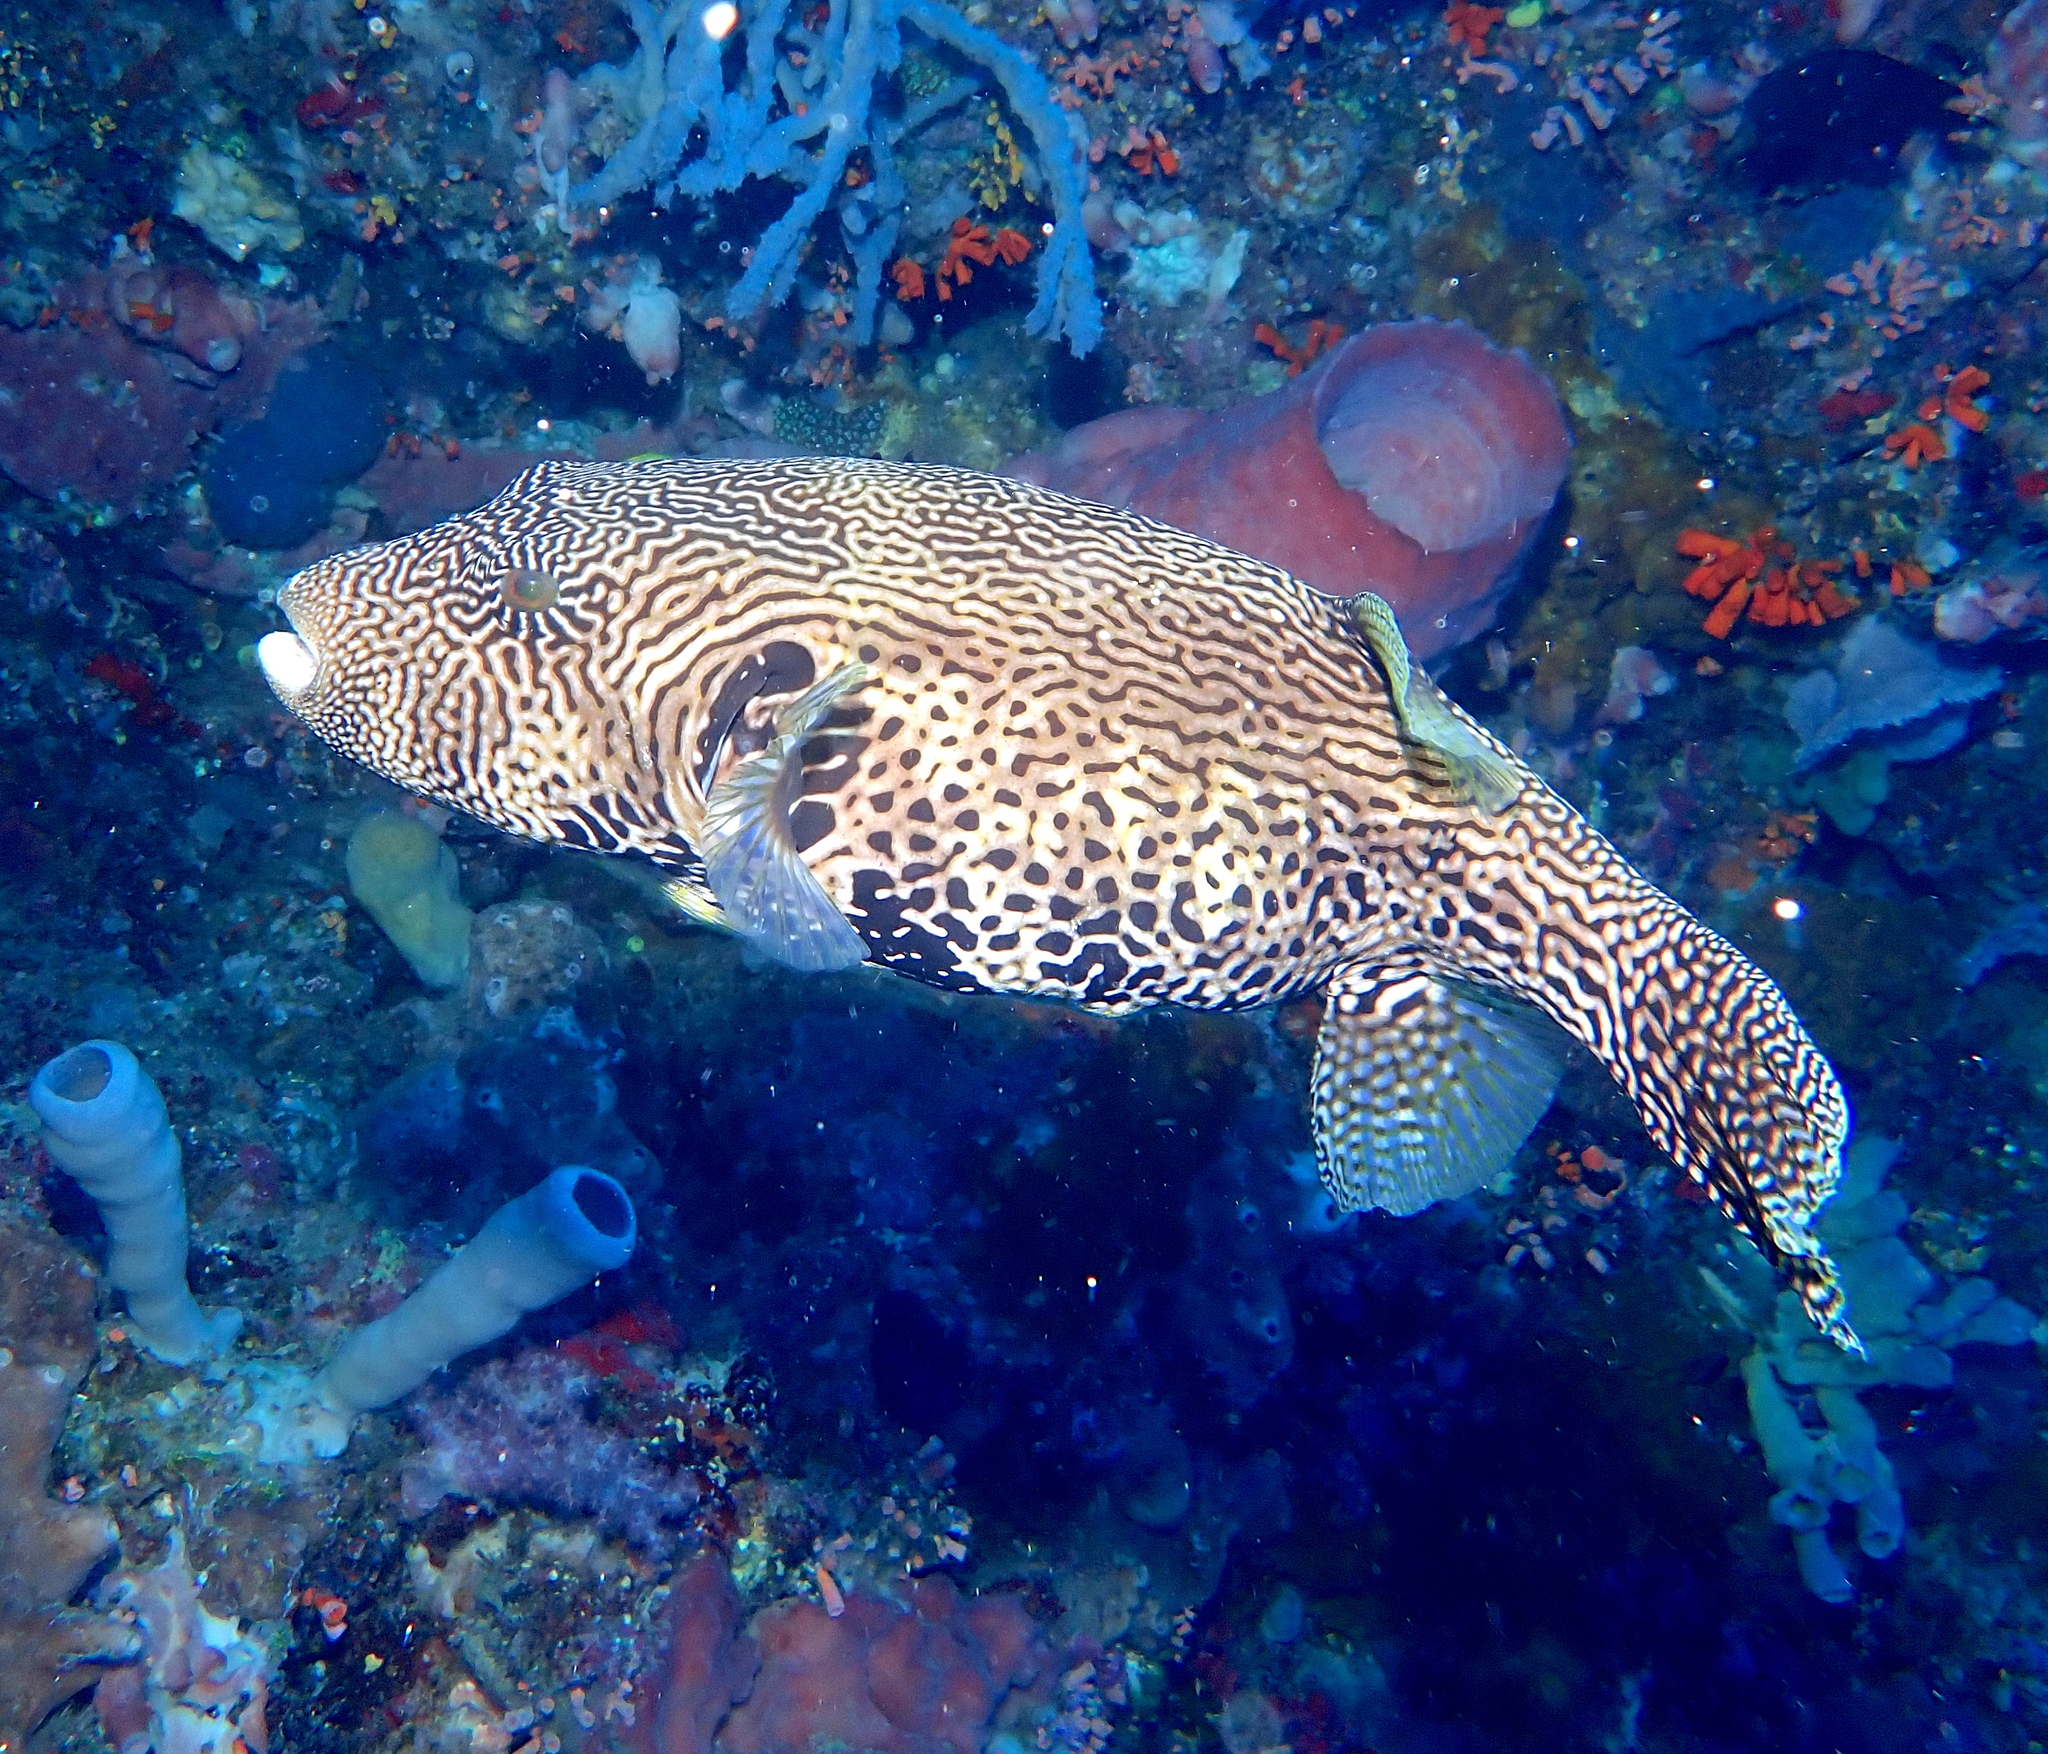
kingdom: Animalia
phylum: Chordata
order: Tetraodontiformes
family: Tetraodontidae
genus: Arothron
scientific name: Arothron mappa
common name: Map blaasop
